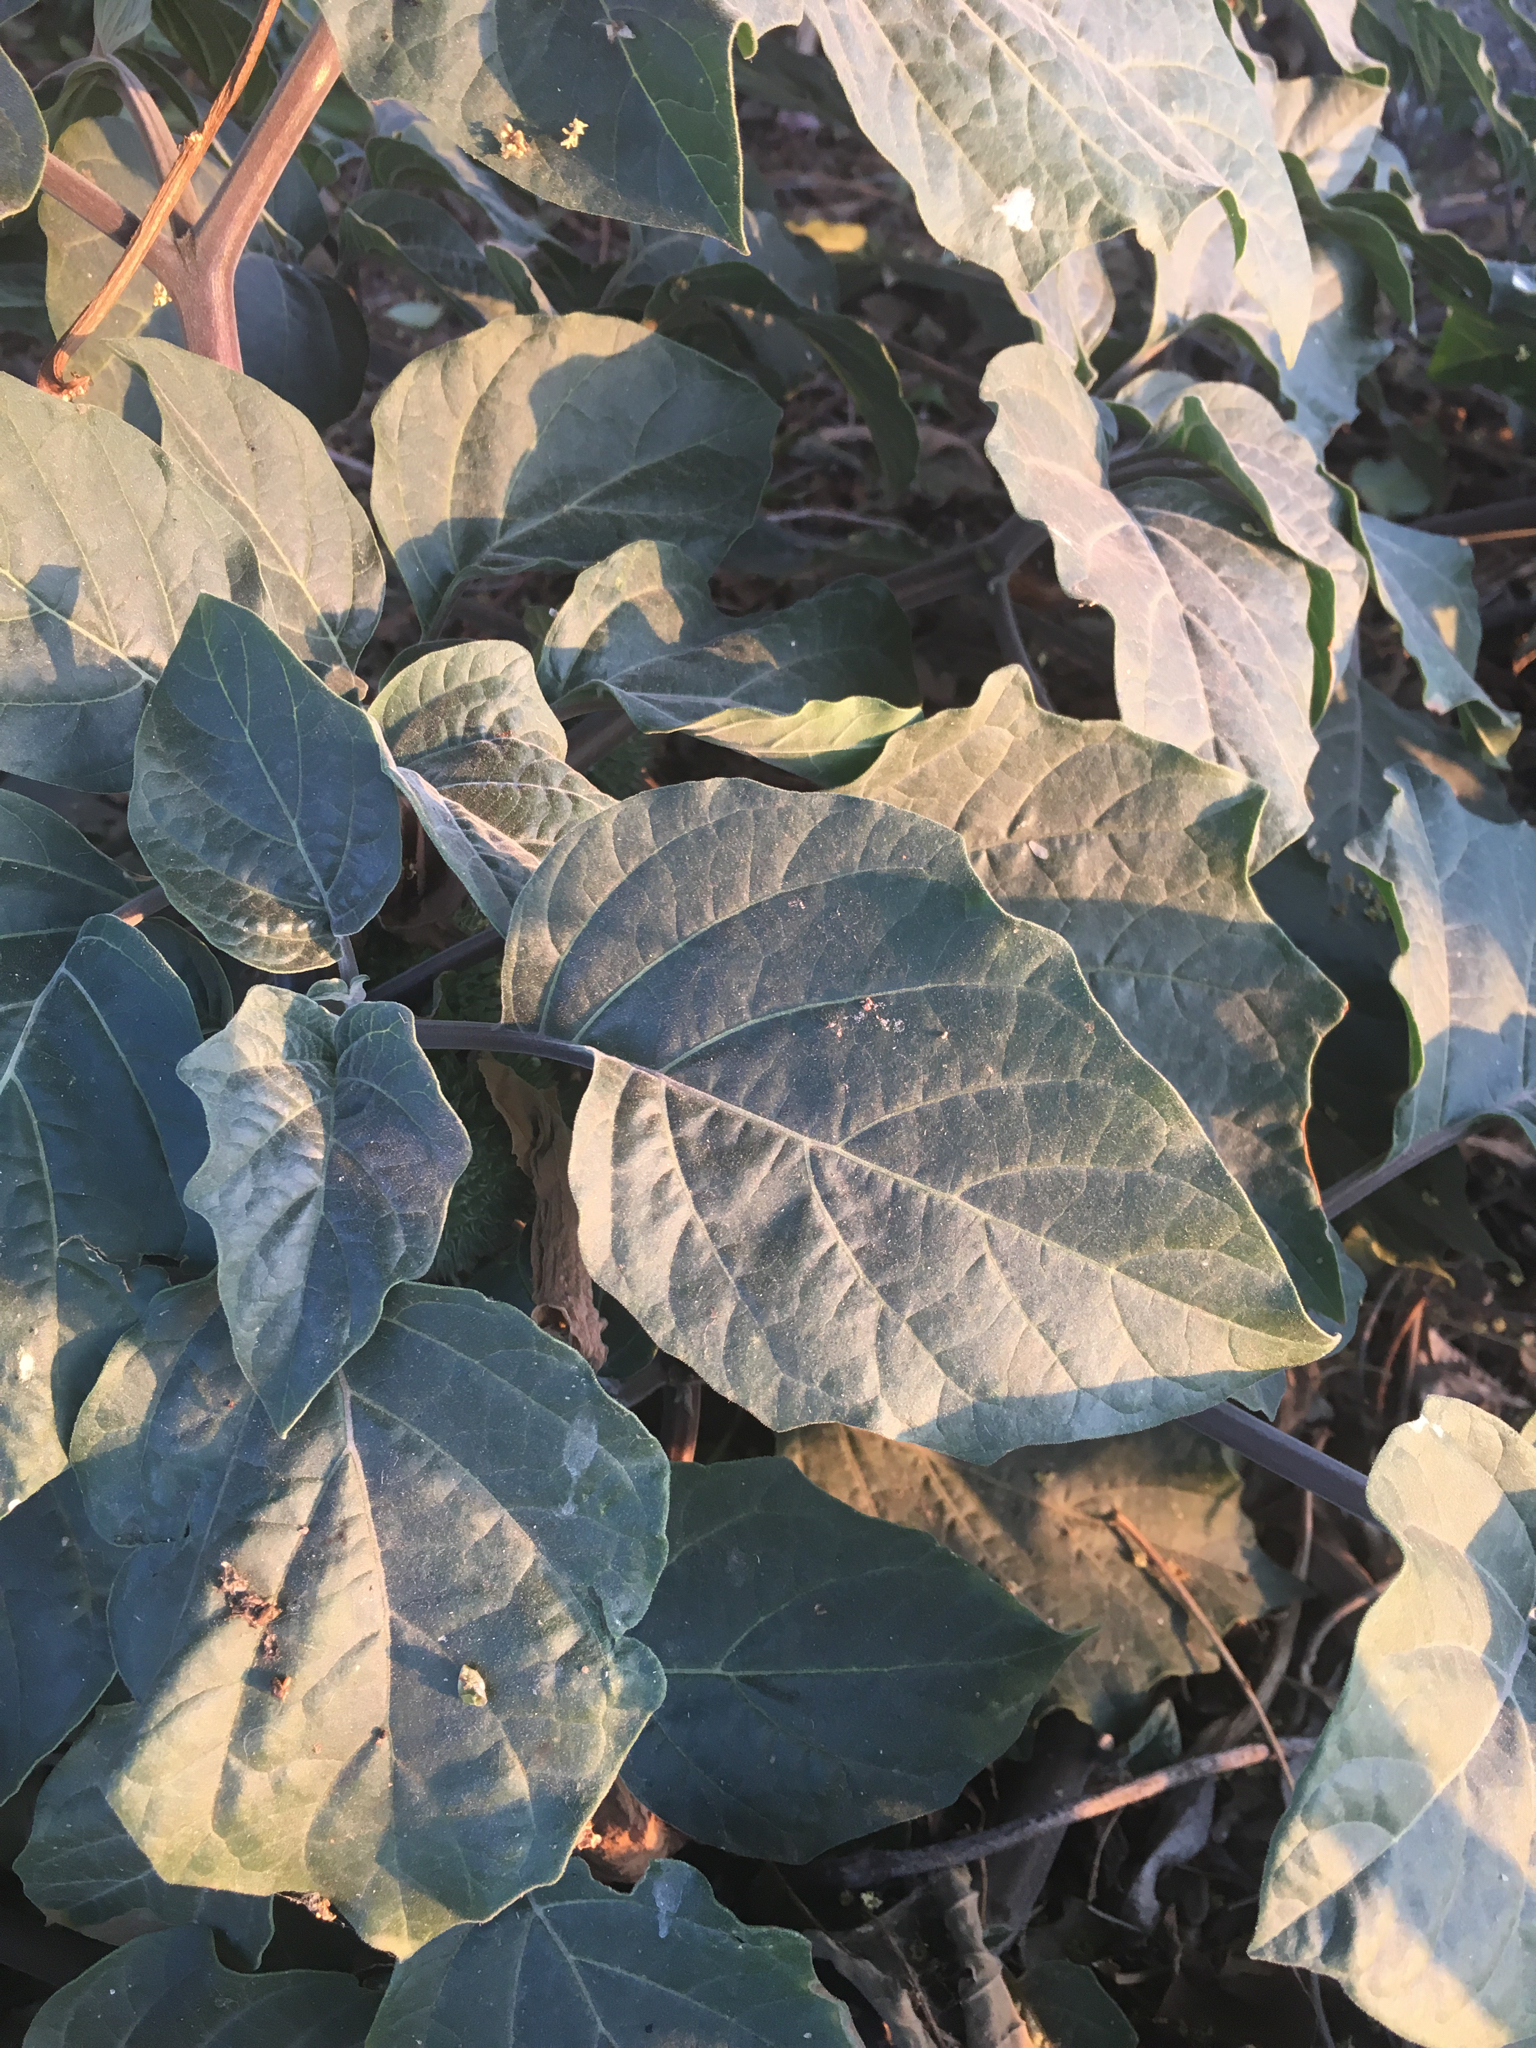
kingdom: Plantae
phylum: Tracheophyta
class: Magnoliopsida
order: Solanales
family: Solanaceae
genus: Datura
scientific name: Datura wrightii
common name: Sacred thorn-apple
